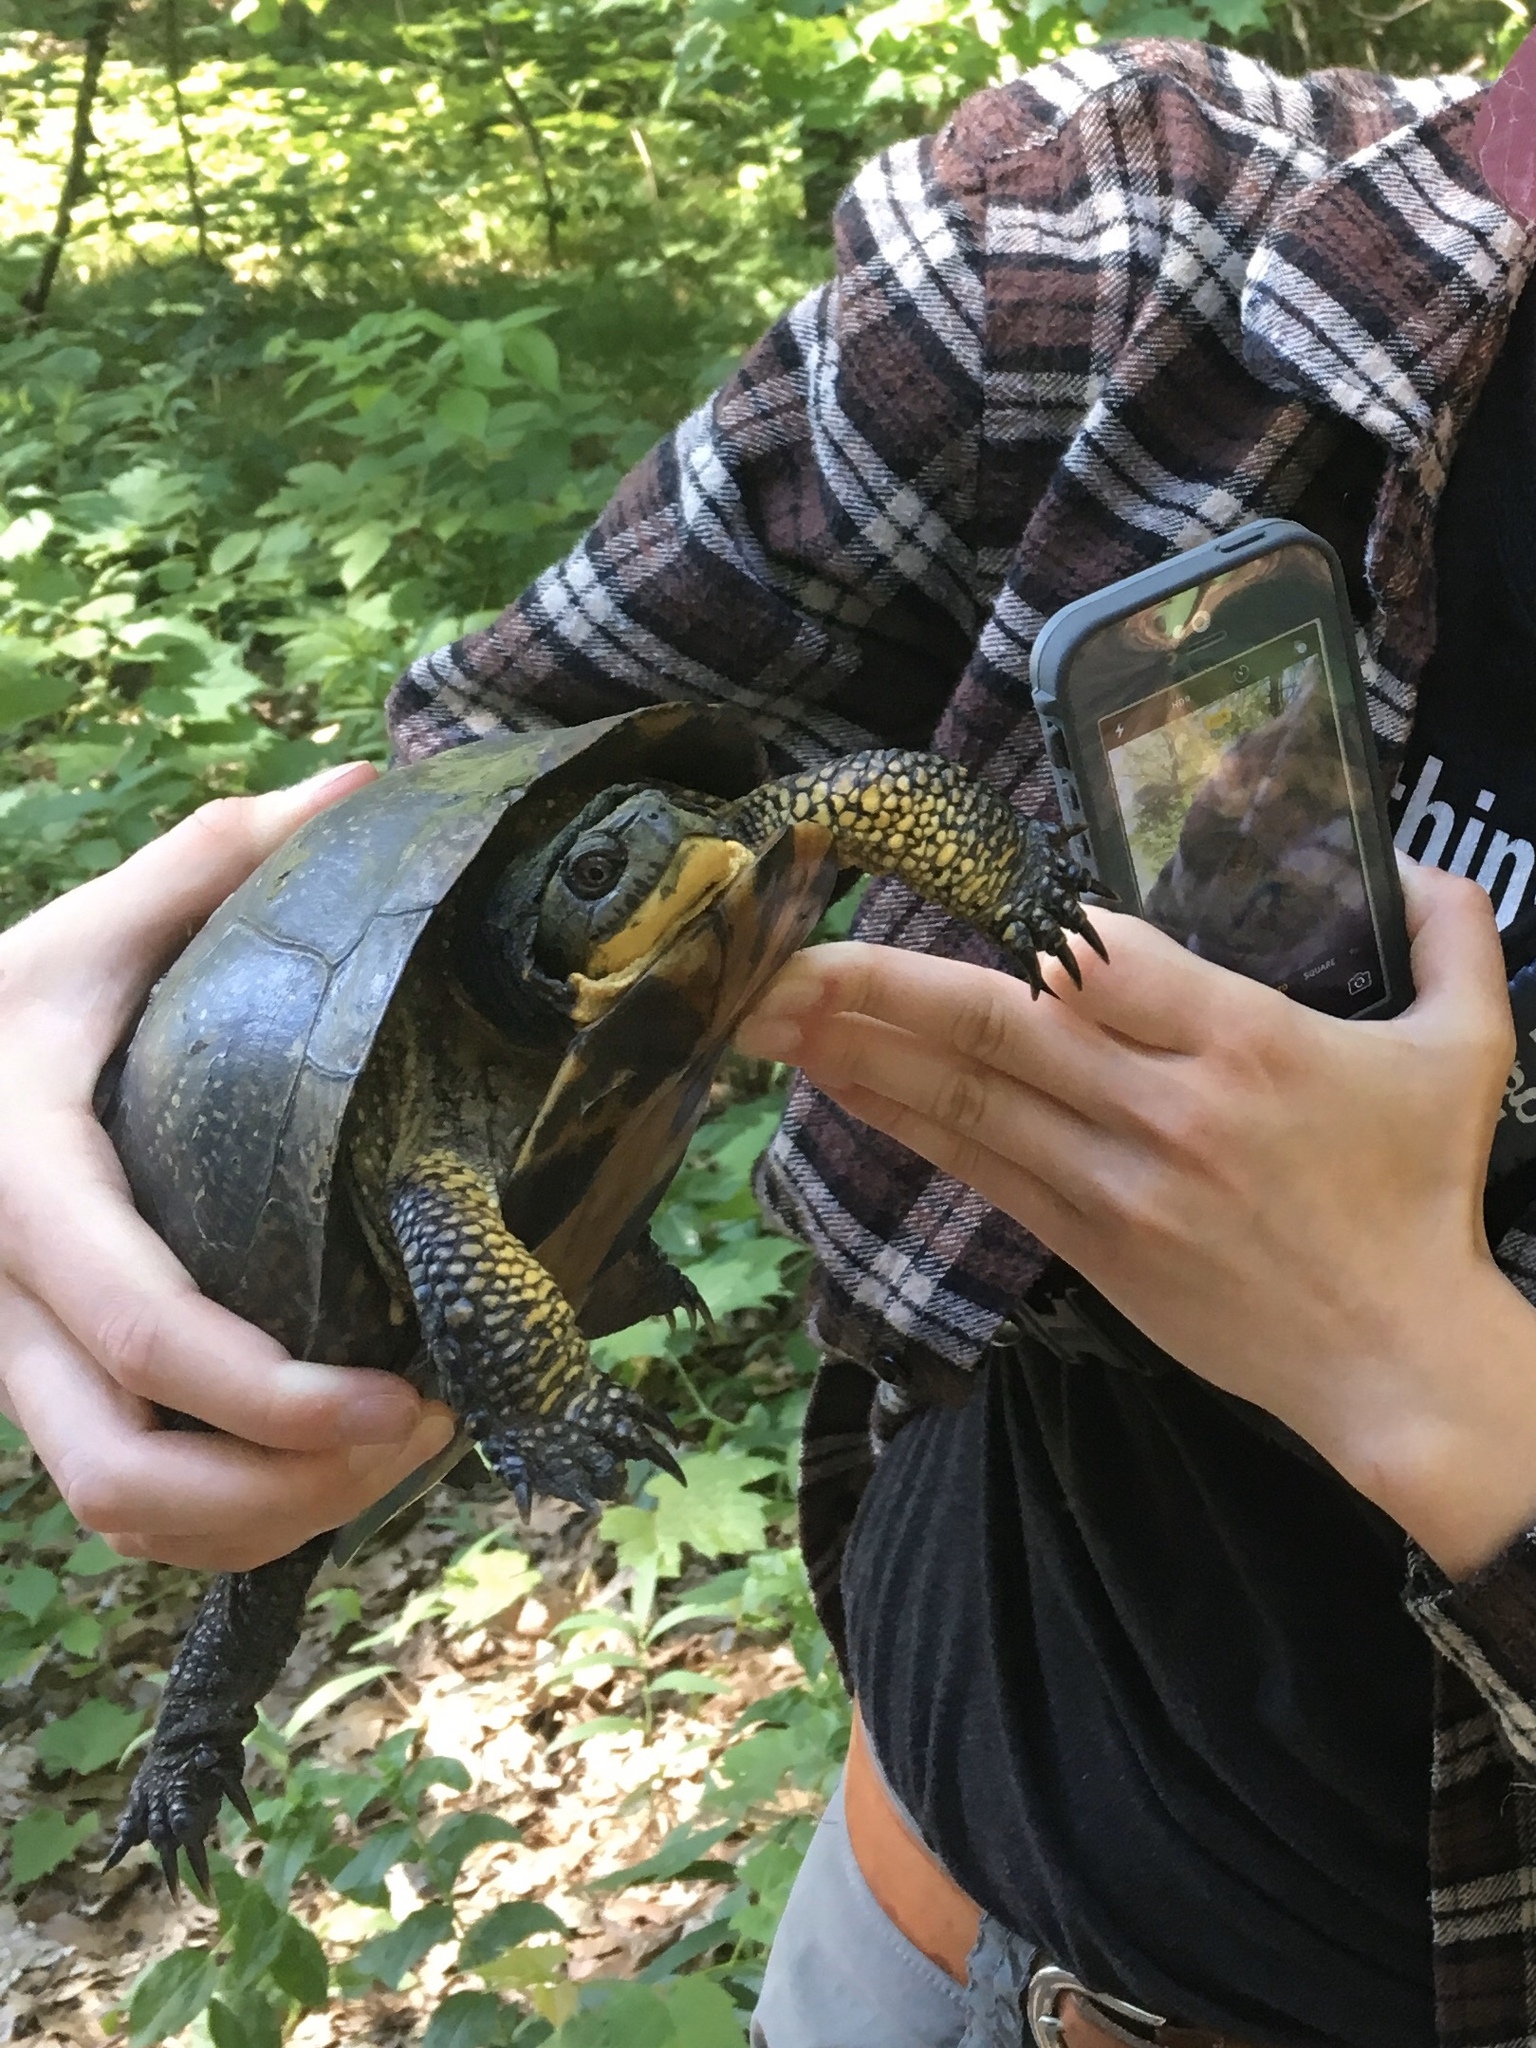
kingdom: Animalia
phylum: Chordata
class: Testudines
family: Emydidae
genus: Emys
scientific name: Emys blandingii
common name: Blanding's turtle
